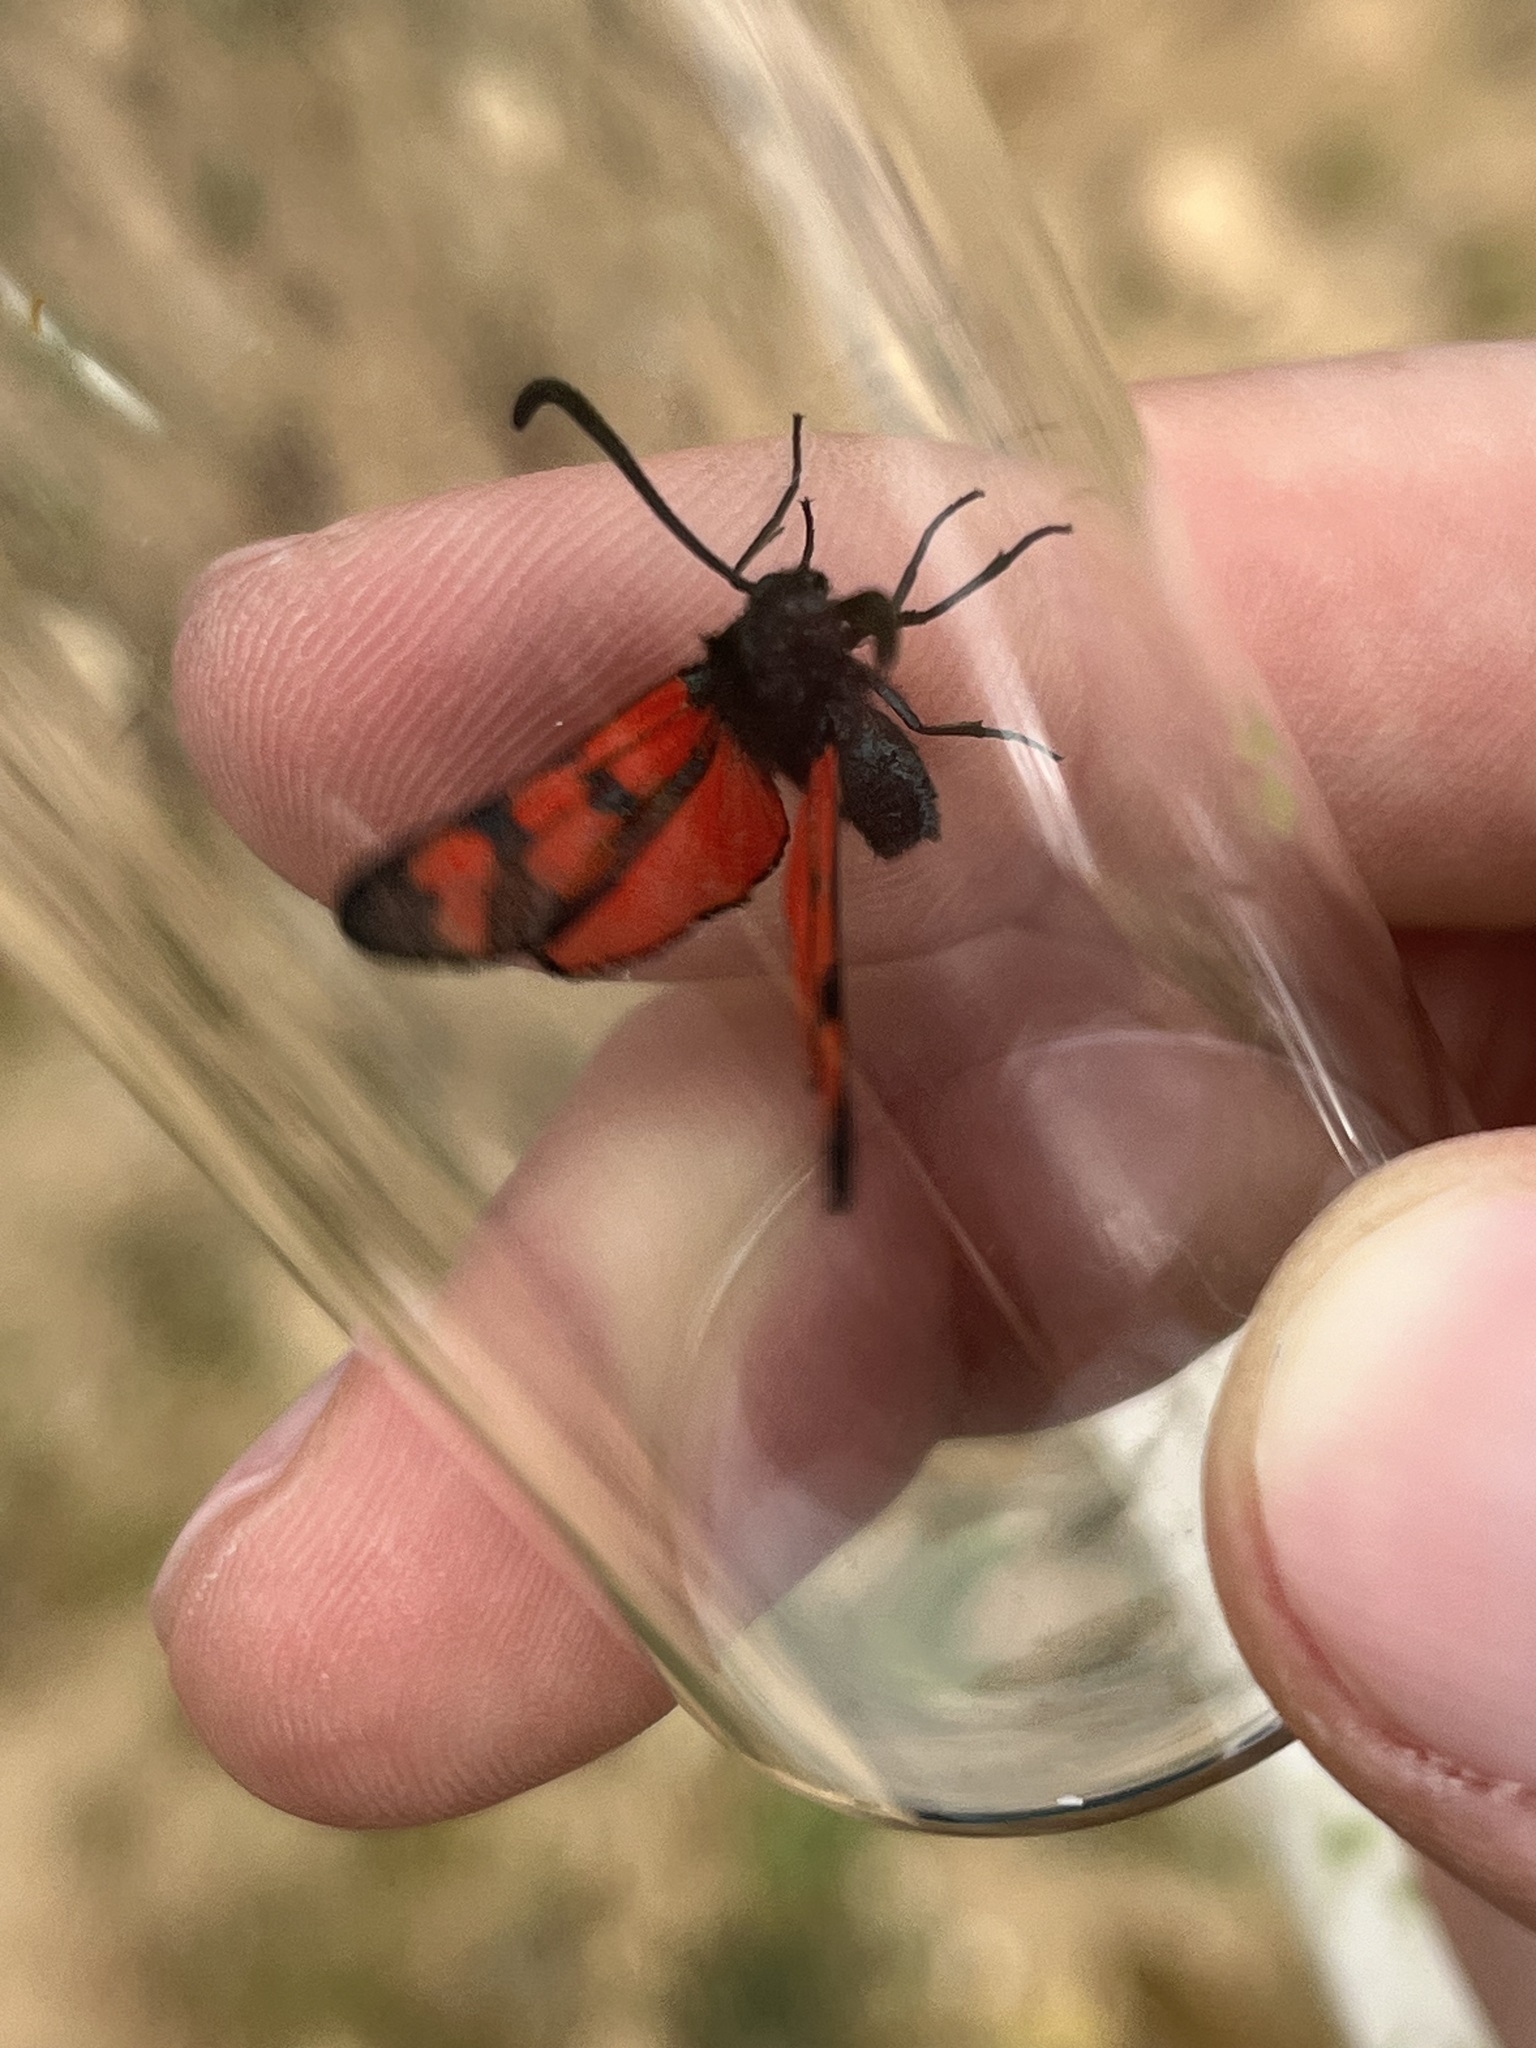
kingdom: Animalia
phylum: Arthropoda
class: Insecta
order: Lepidoptera
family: Zygaenidae
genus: Zygaena
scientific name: Zygaena graslini
